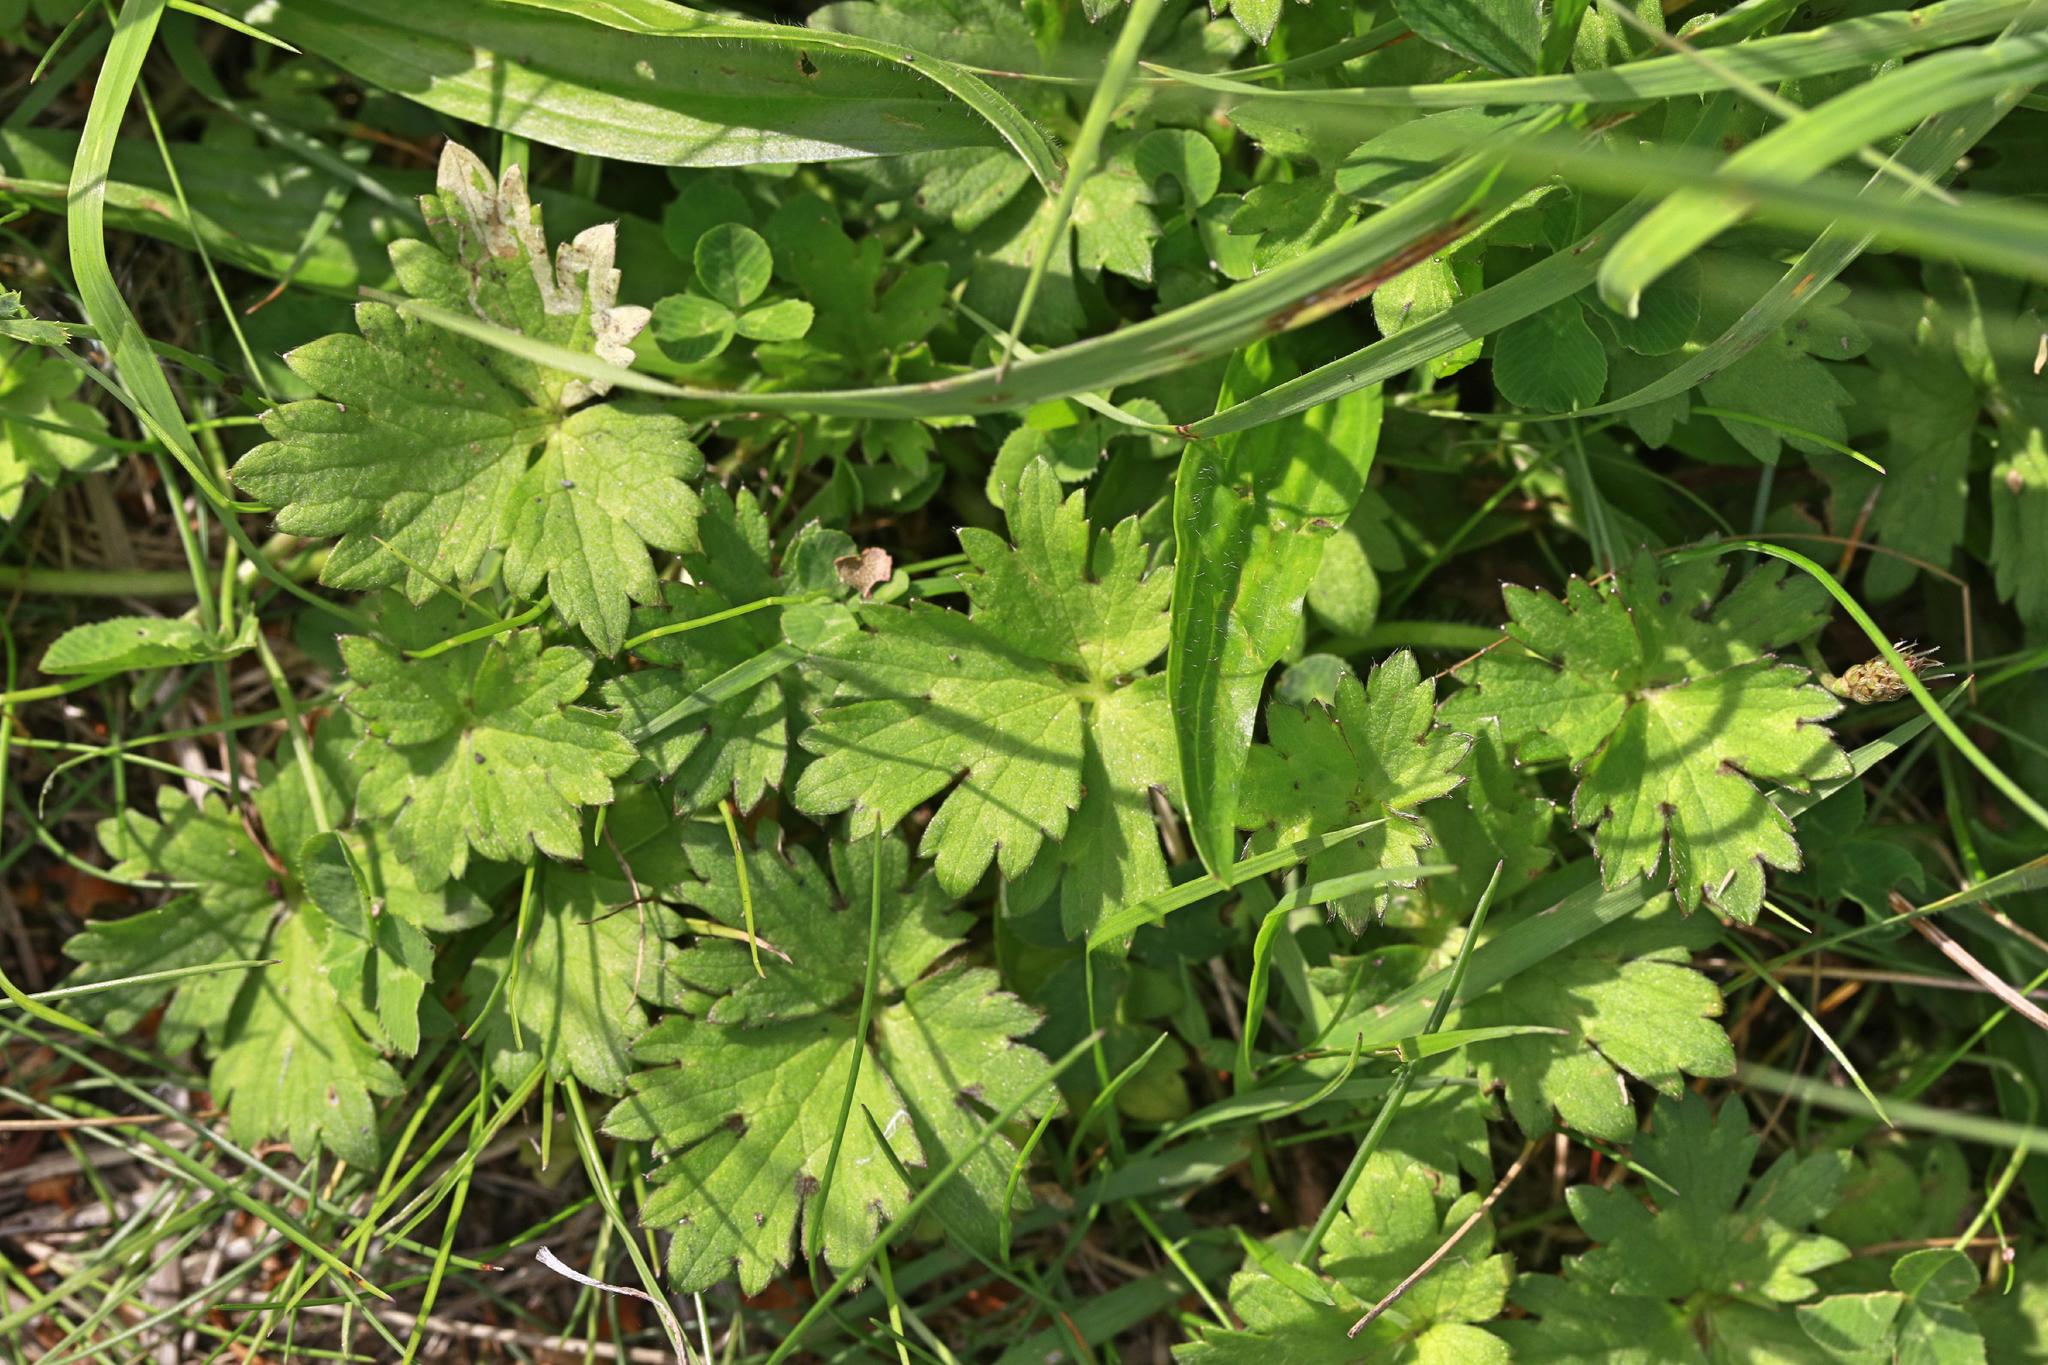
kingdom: Plantae
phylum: Tracheophyta
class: Magnoliopsida
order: Ranunculales
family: Ranunculaceae
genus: Ranunculus
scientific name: Ranunculus repens
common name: Creeping buttercup
